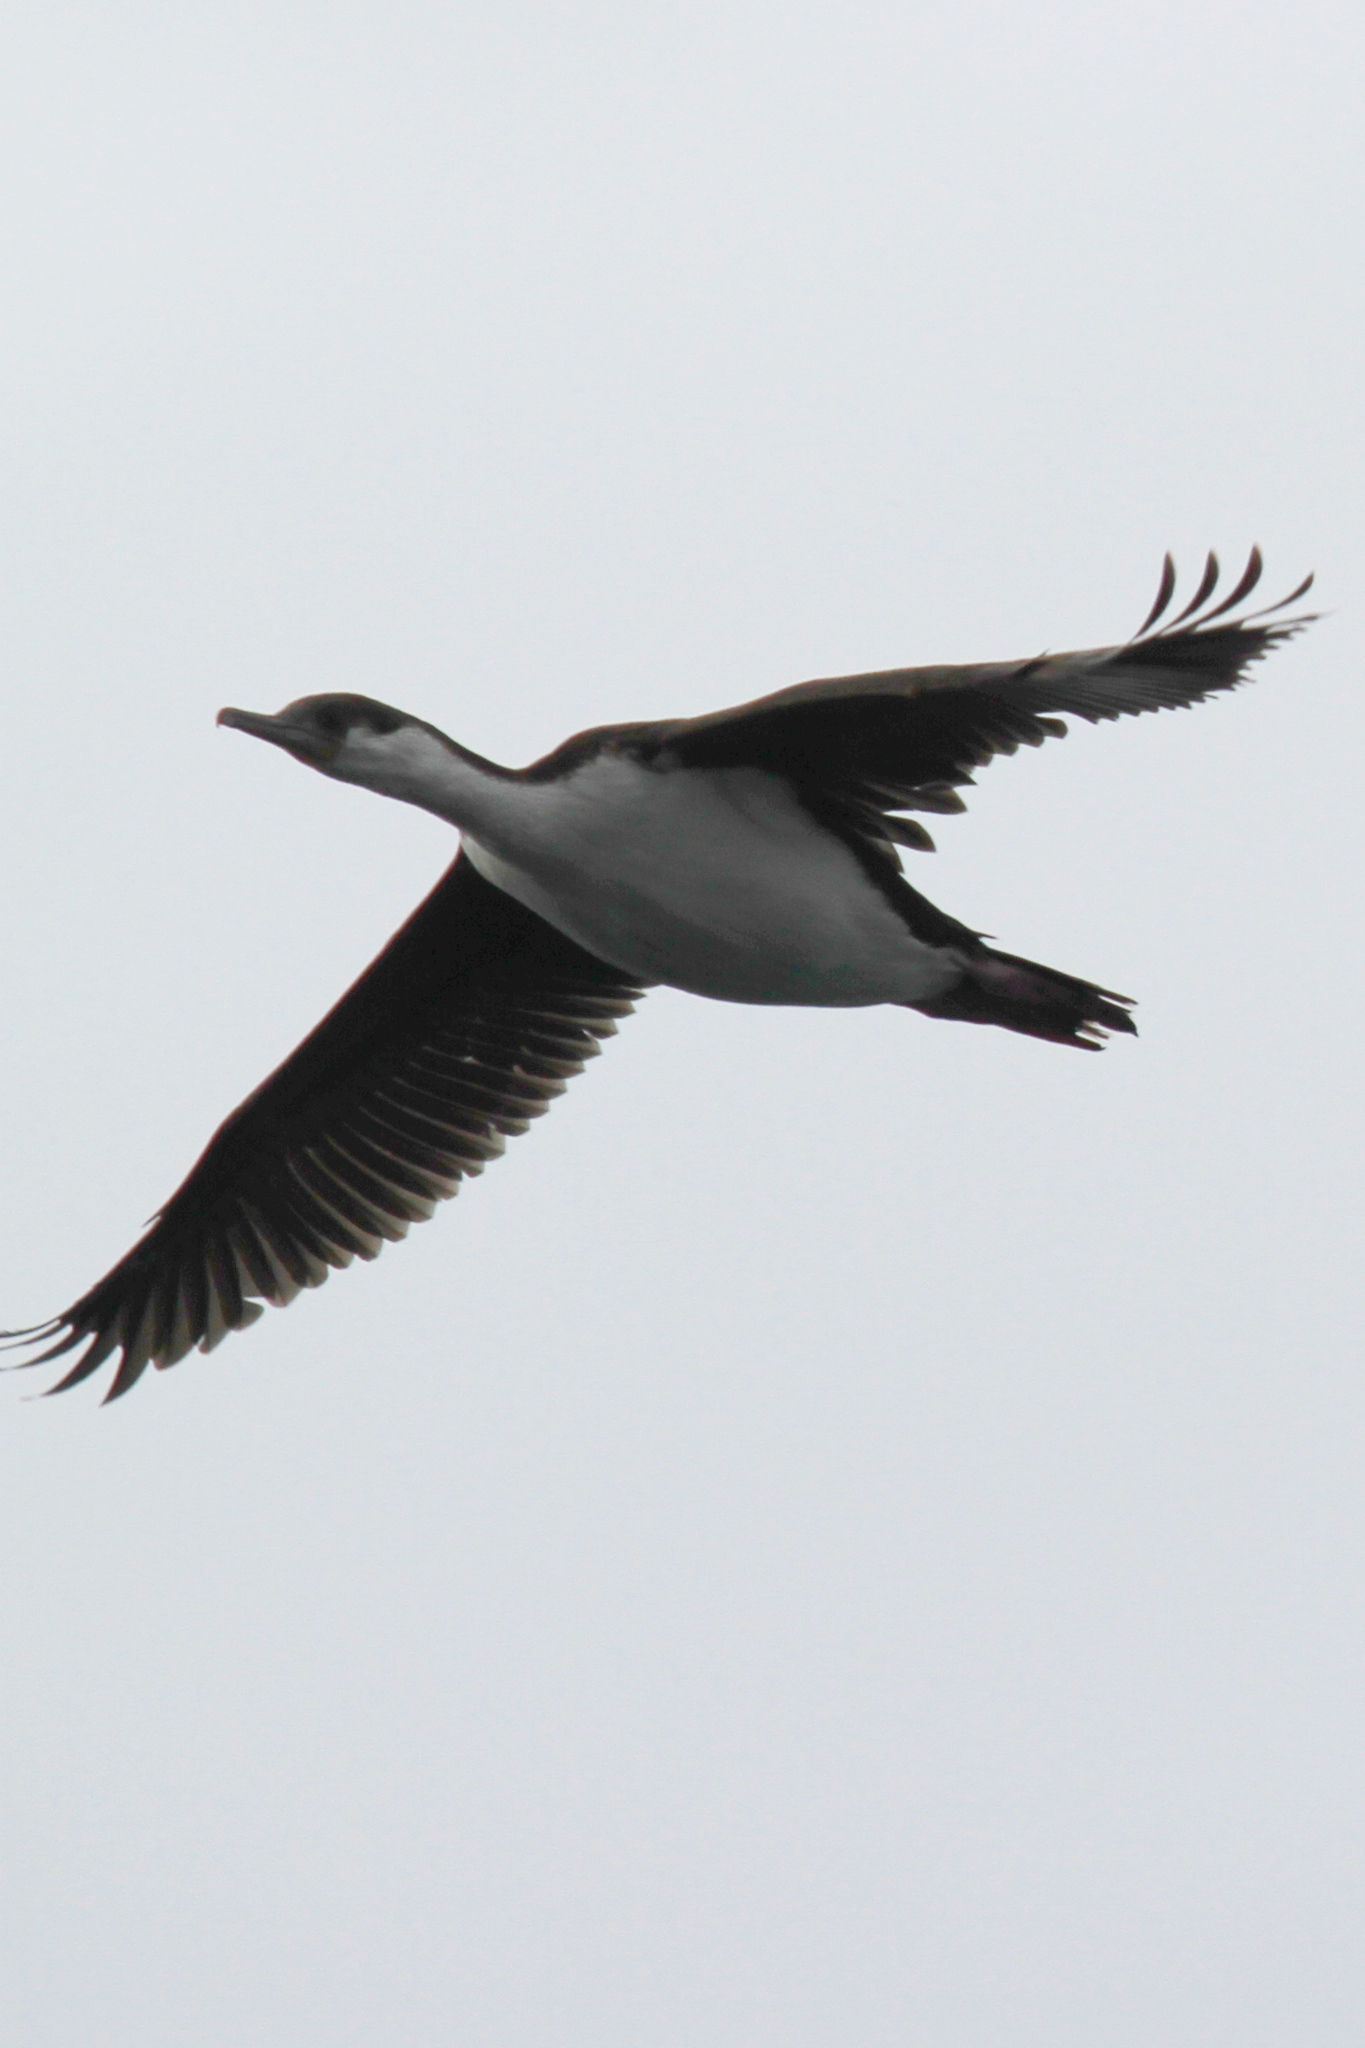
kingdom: Animalia
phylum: Chordata
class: Aves
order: Suliformes
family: Phalacrocoracidae
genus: Leucocarbo
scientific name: Leucocarbo atriceps
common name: Imperial shag
